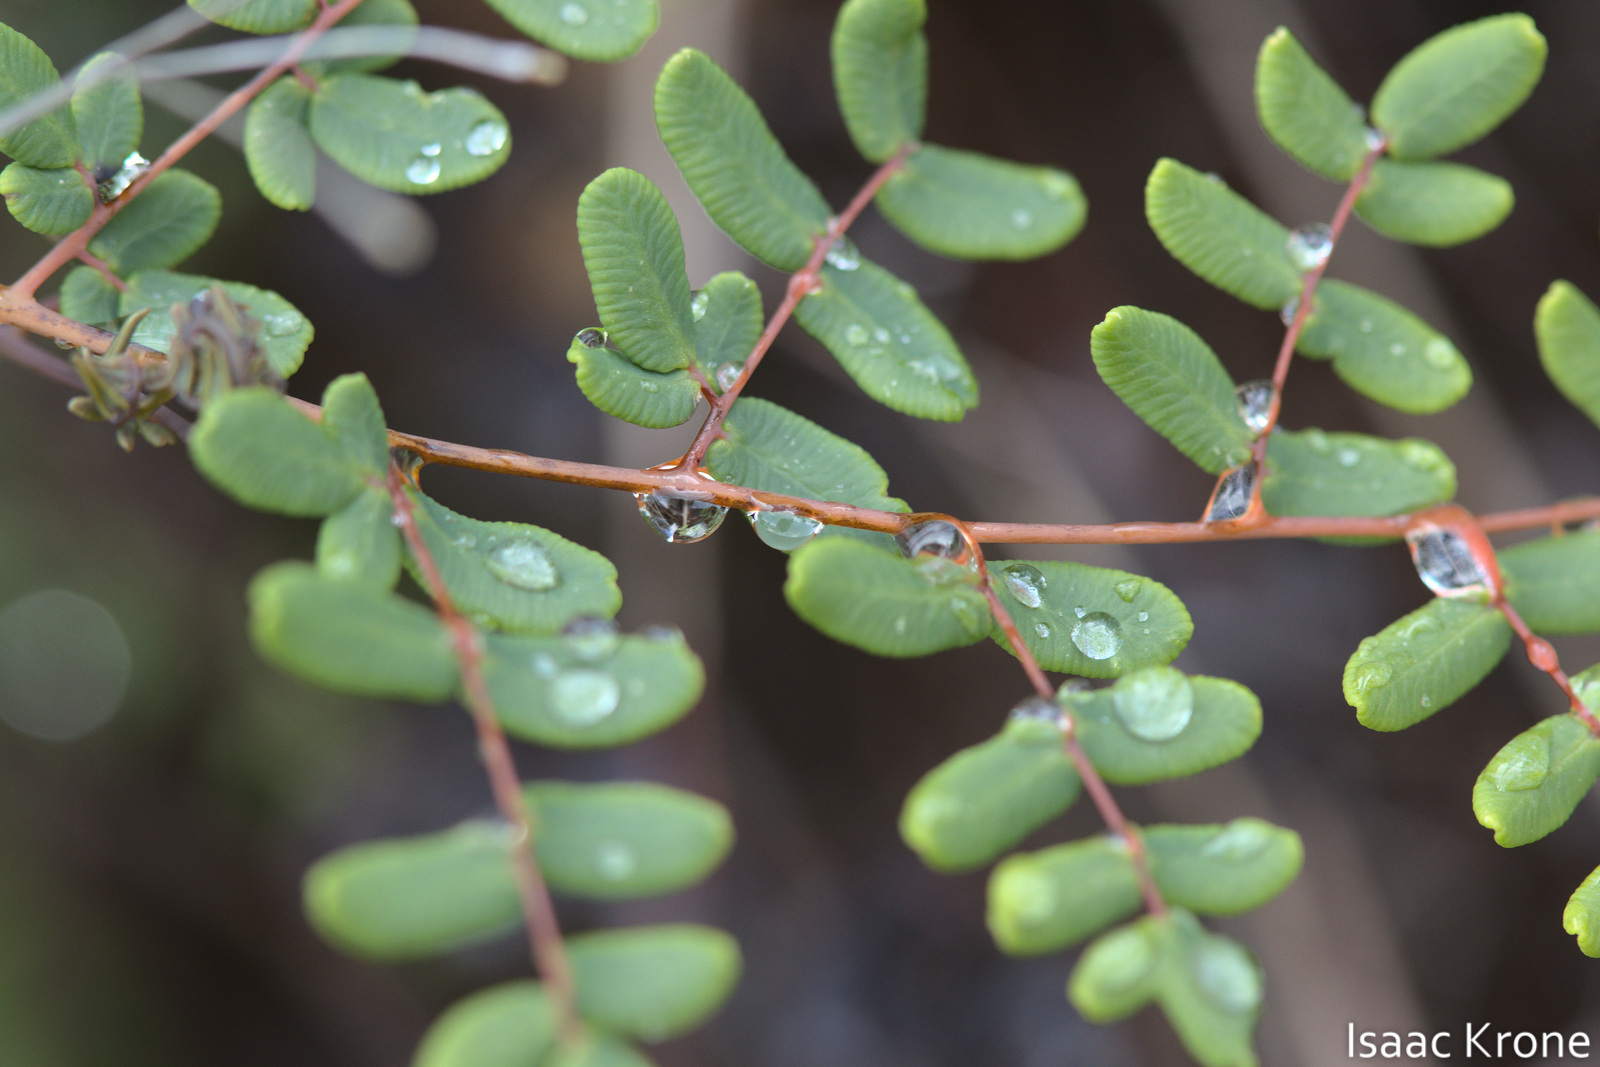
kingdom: Plantae
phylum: Tracheophyta
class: Polypodiopsida
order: Polypodiales
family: Pteridaceae
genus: Pellaea
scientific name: Pellaea andromedifolia
